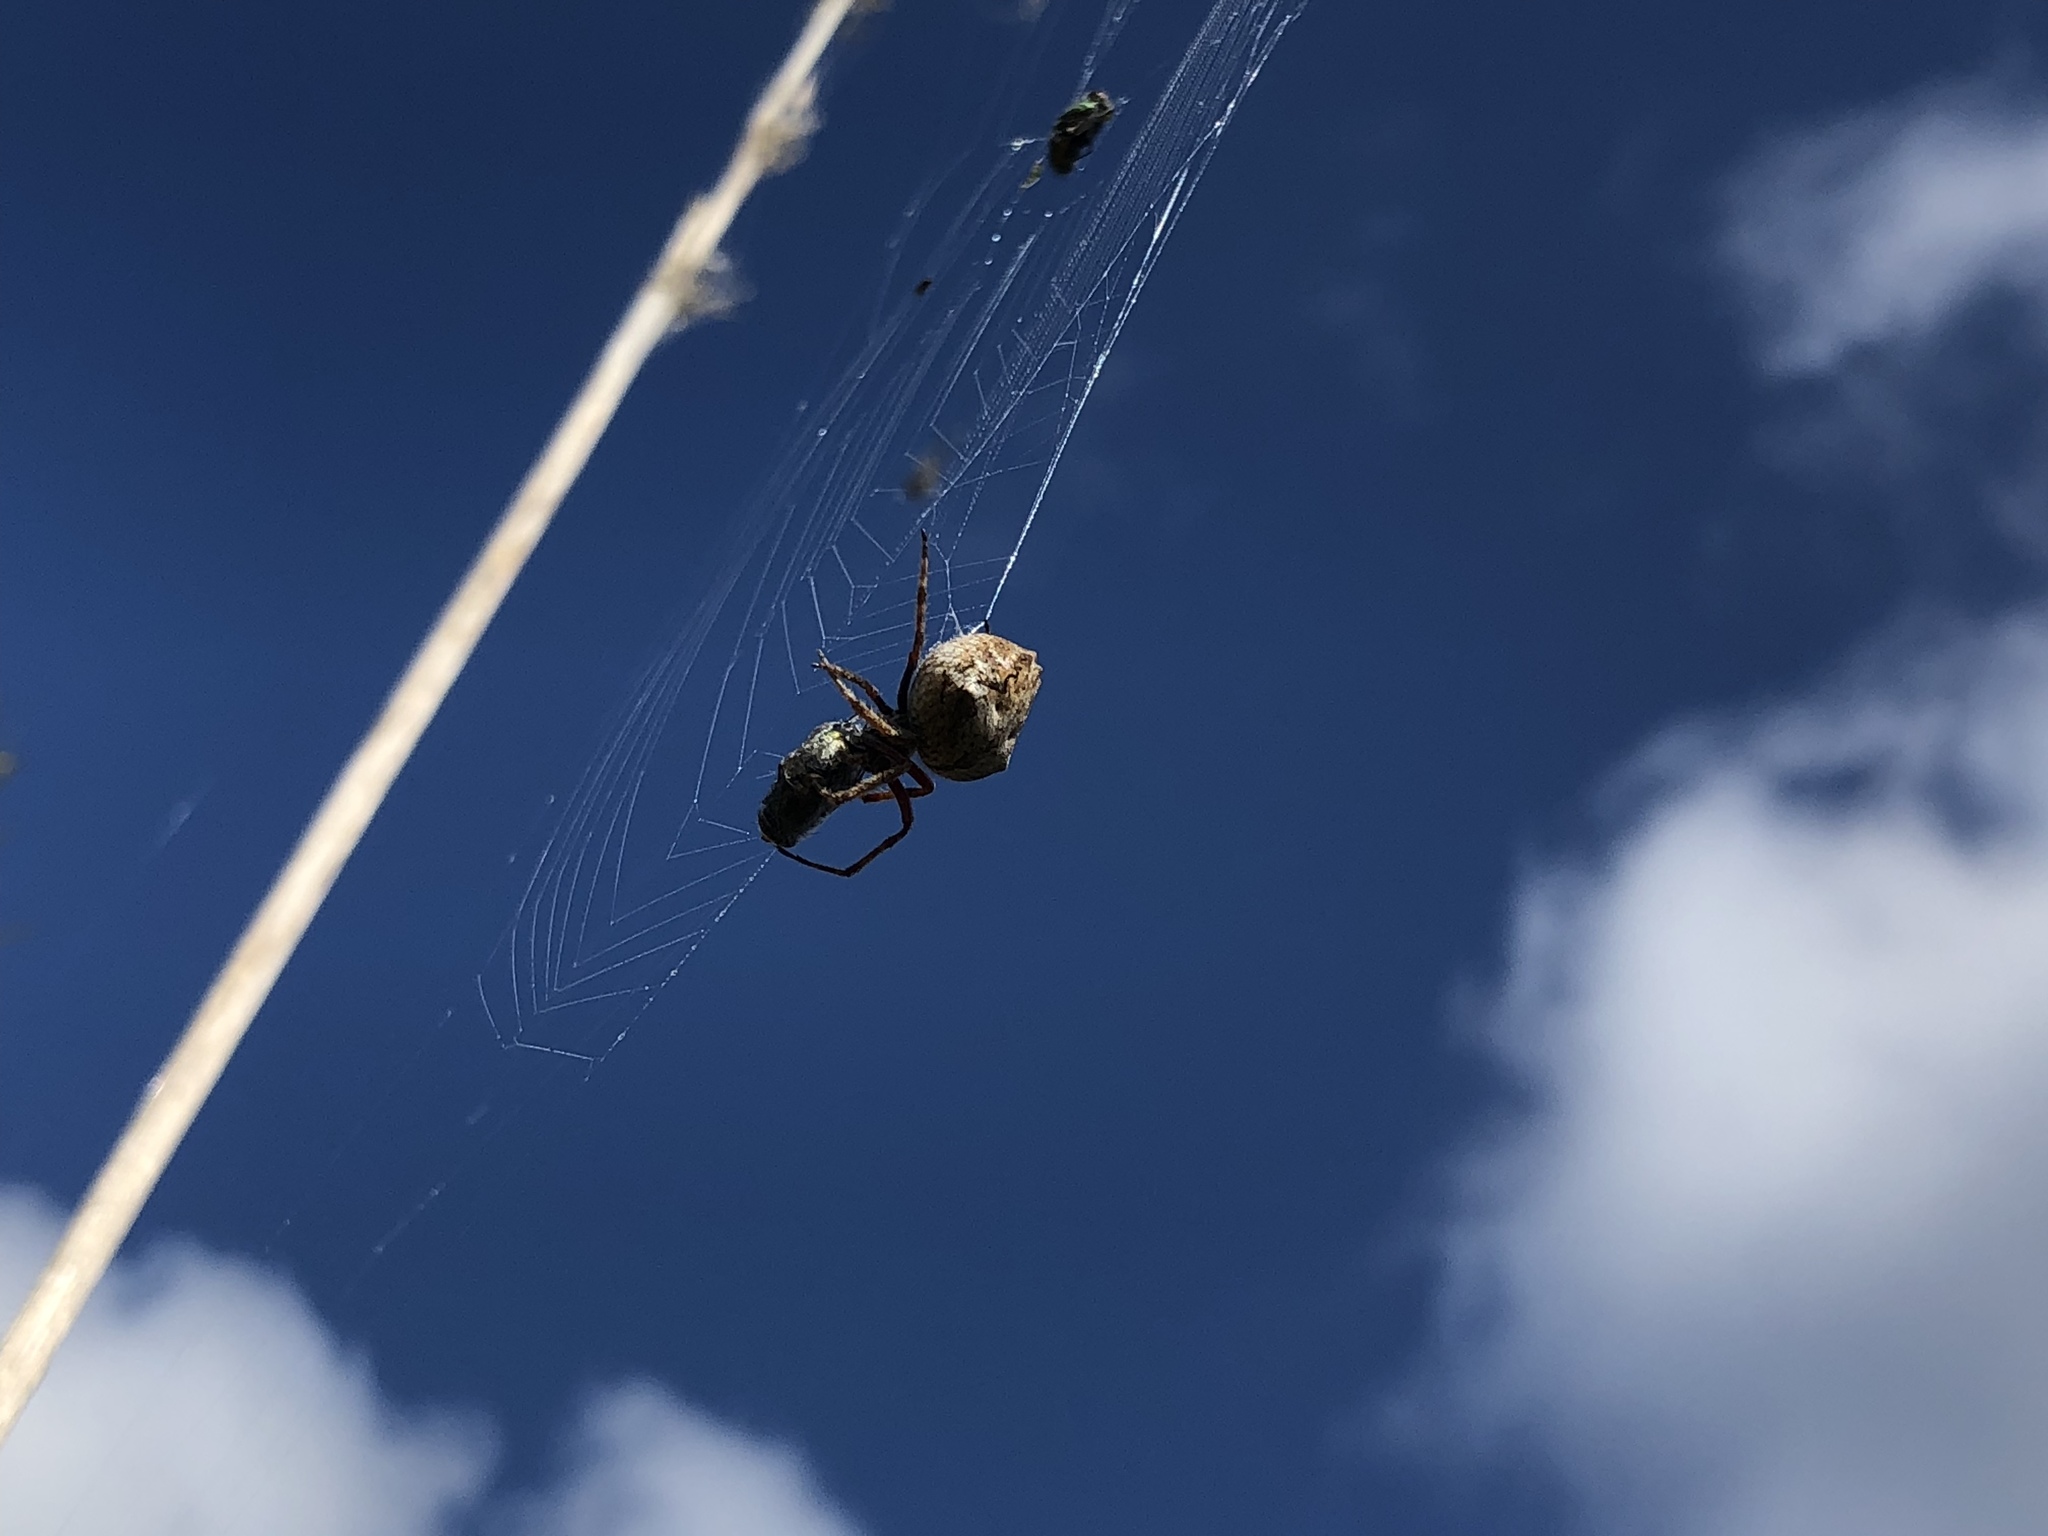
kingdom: Animalia
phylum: Arthropoda
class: Arachnida
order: Araneae
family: Araneidae
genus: Eriophora
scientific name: Eriophora pustulosa
